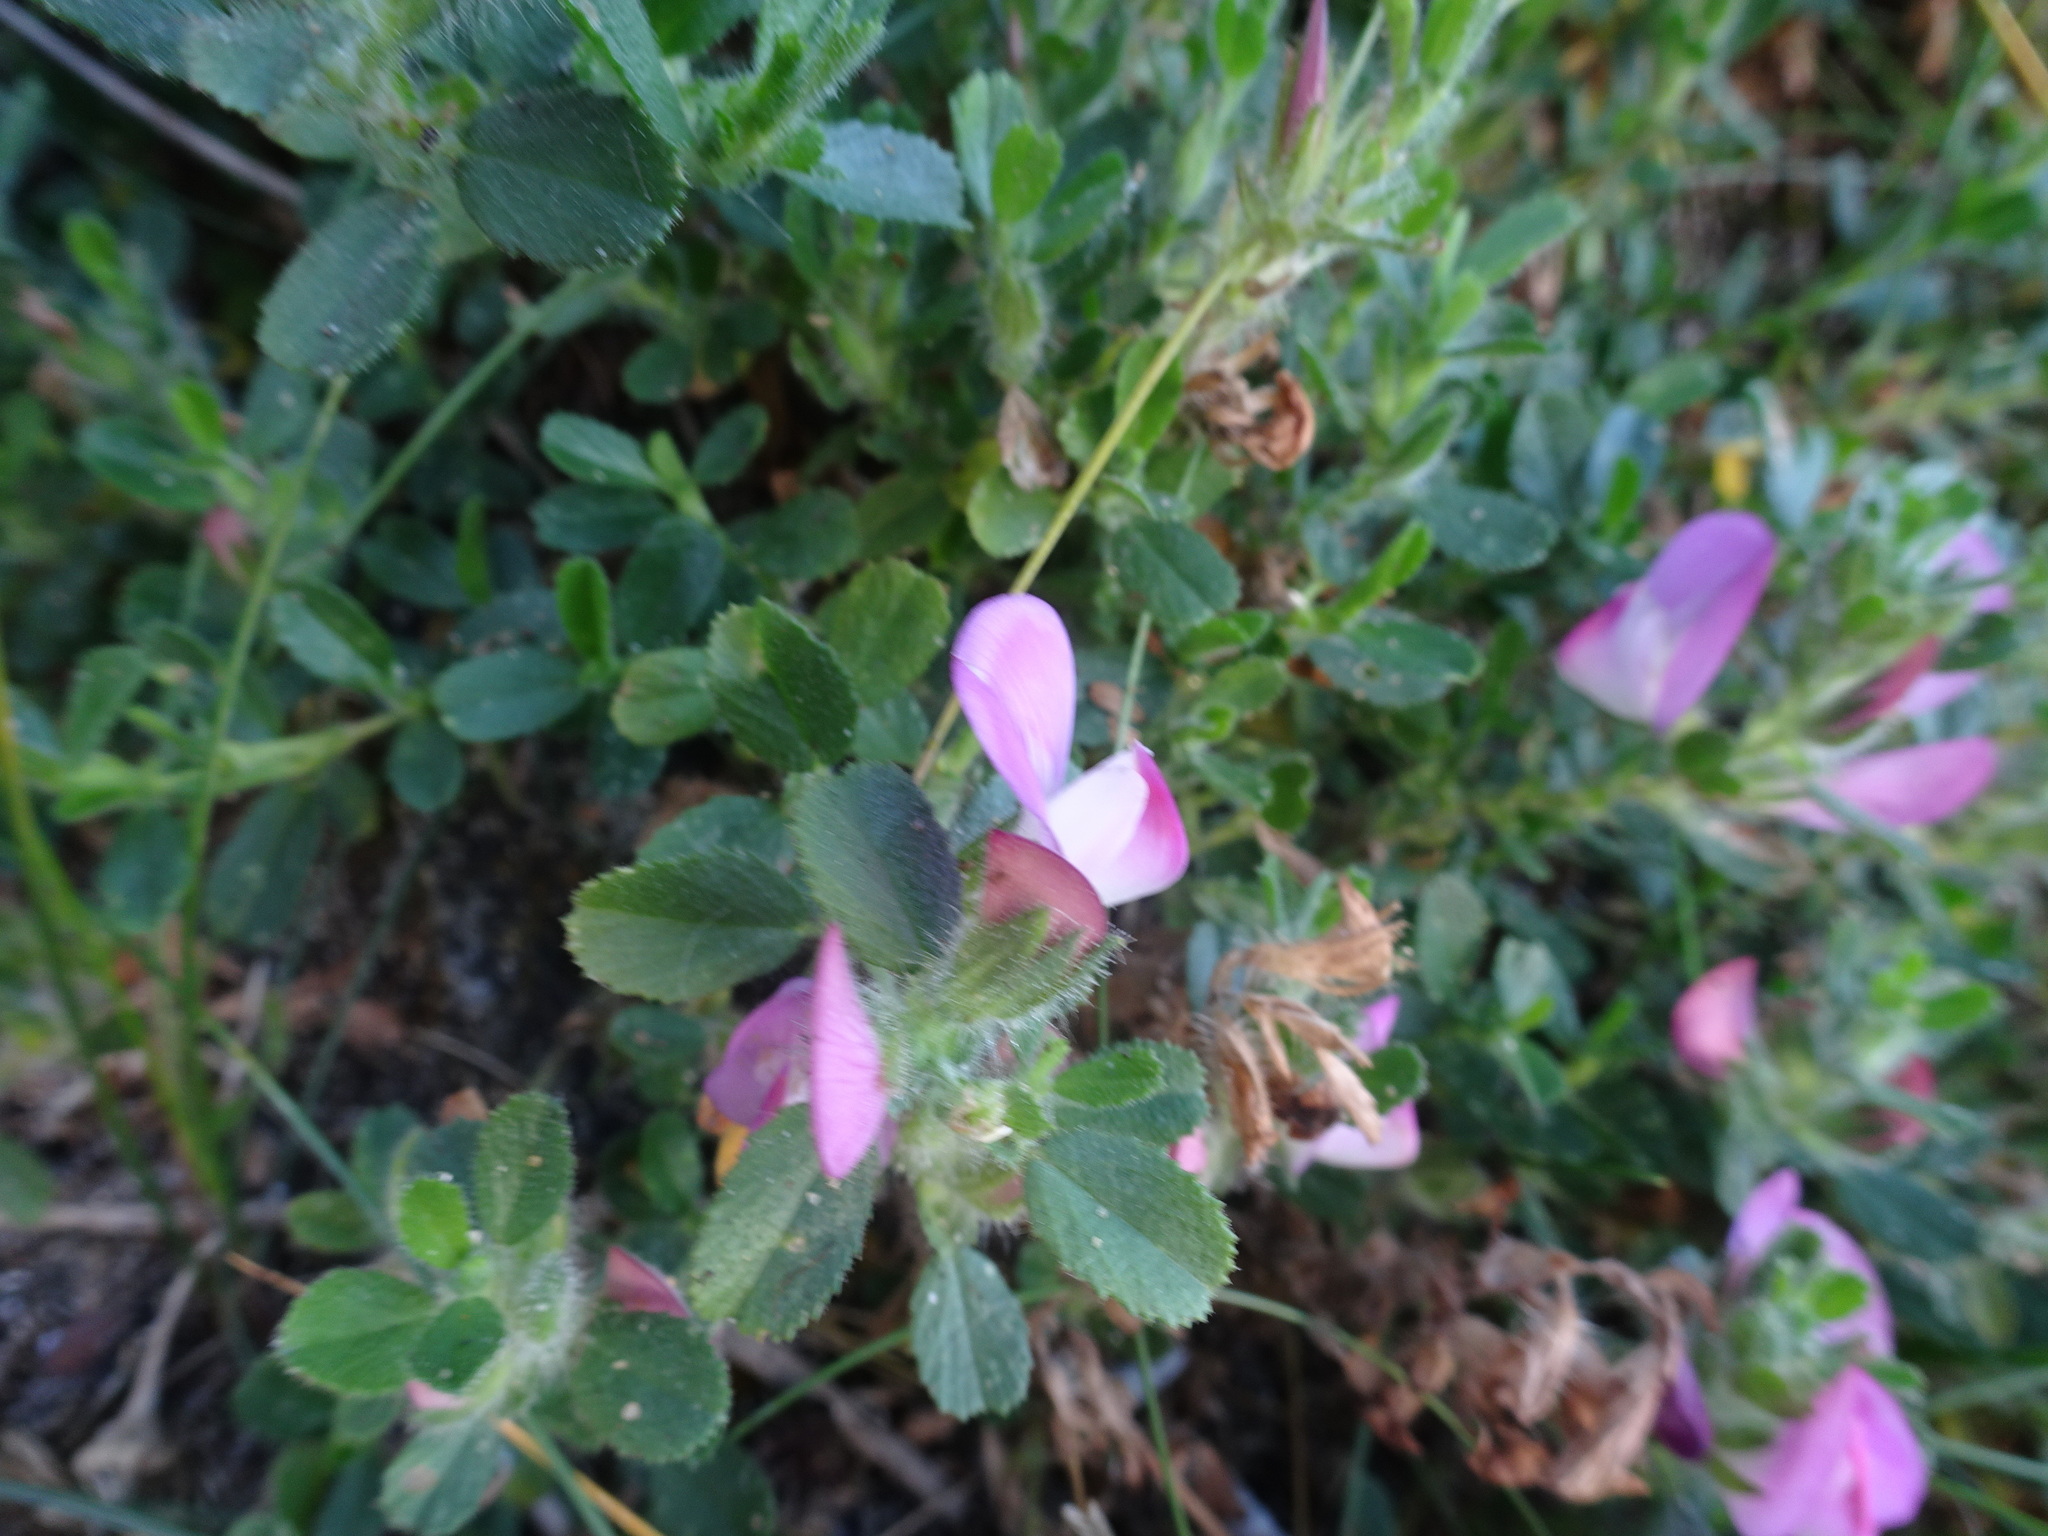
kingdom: Plantae
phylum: Tracheophyta
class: Magnoliopsida
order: Fabales
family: Fabaceae
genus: Ononis
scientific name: Ononis spinosa
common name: Spiny restharrow
